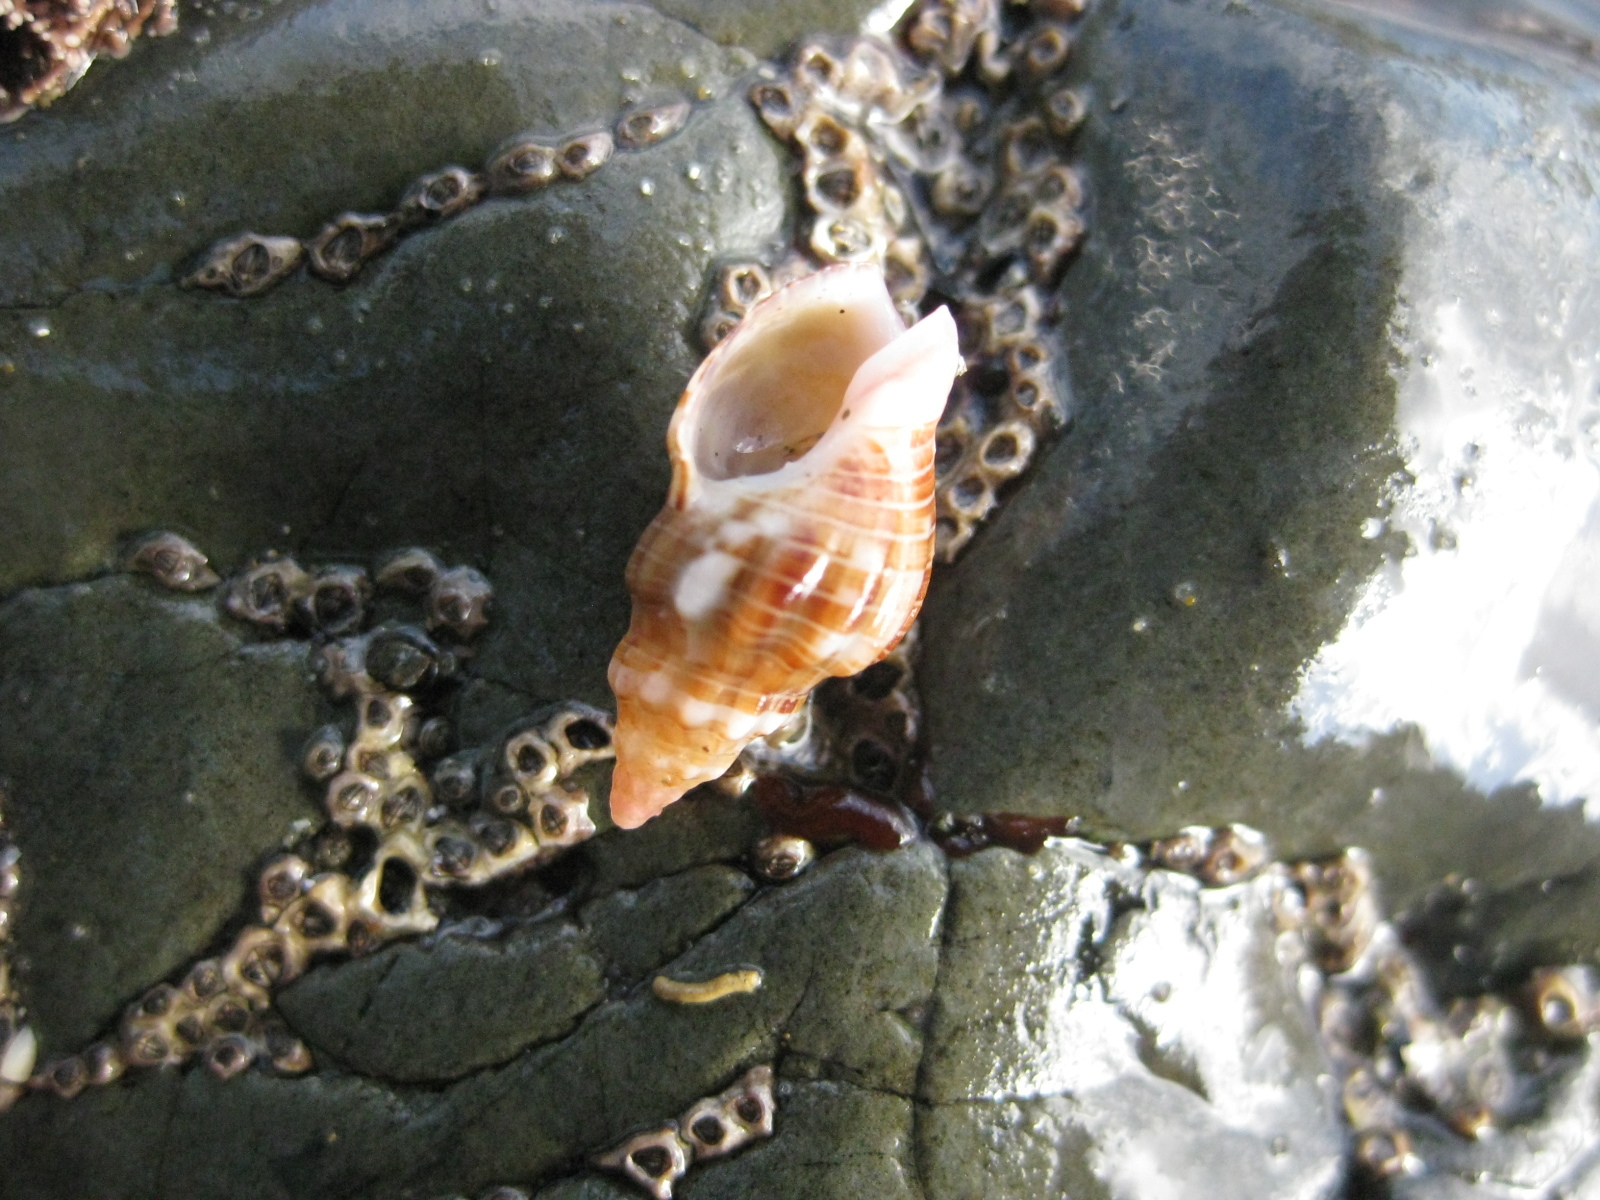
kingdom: Animalia
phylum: Mollusca
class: Gastropoda
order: Neogastropoda
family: Cominellidae
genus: Cominella
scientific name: Cominella quoyana
